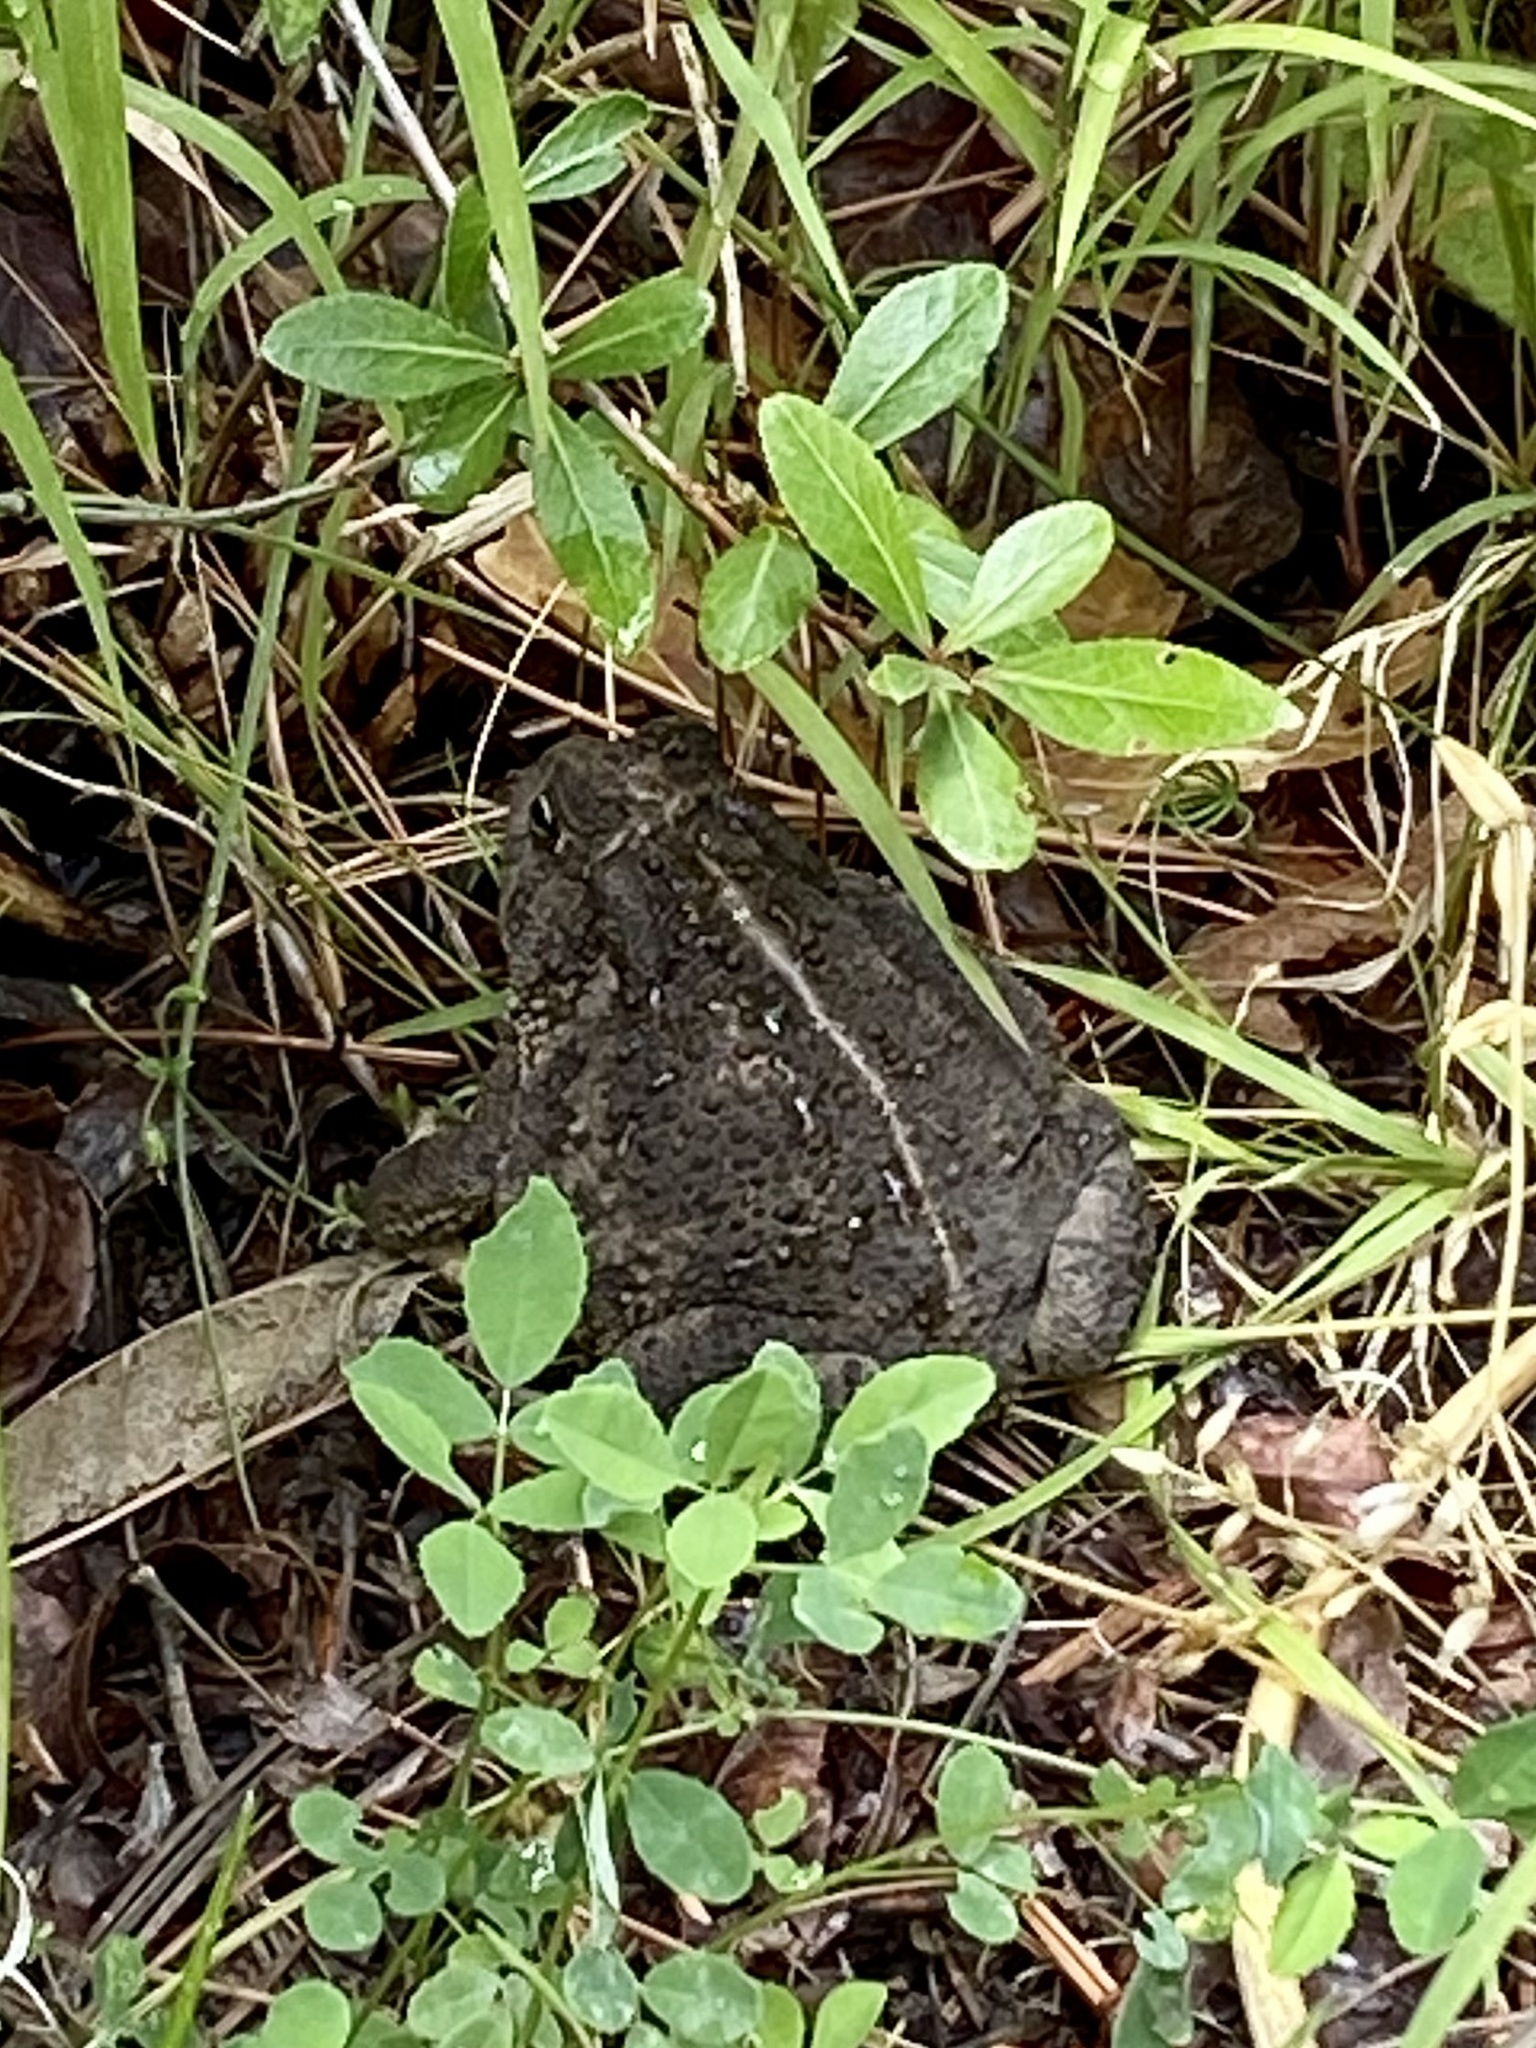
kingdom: Animalia
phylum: Chordata
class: Amphibia
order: Anura
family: Bufonidae
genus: Anaxyrus
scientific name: Anaxyrus woodhousii
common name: Woodhouse's toad
